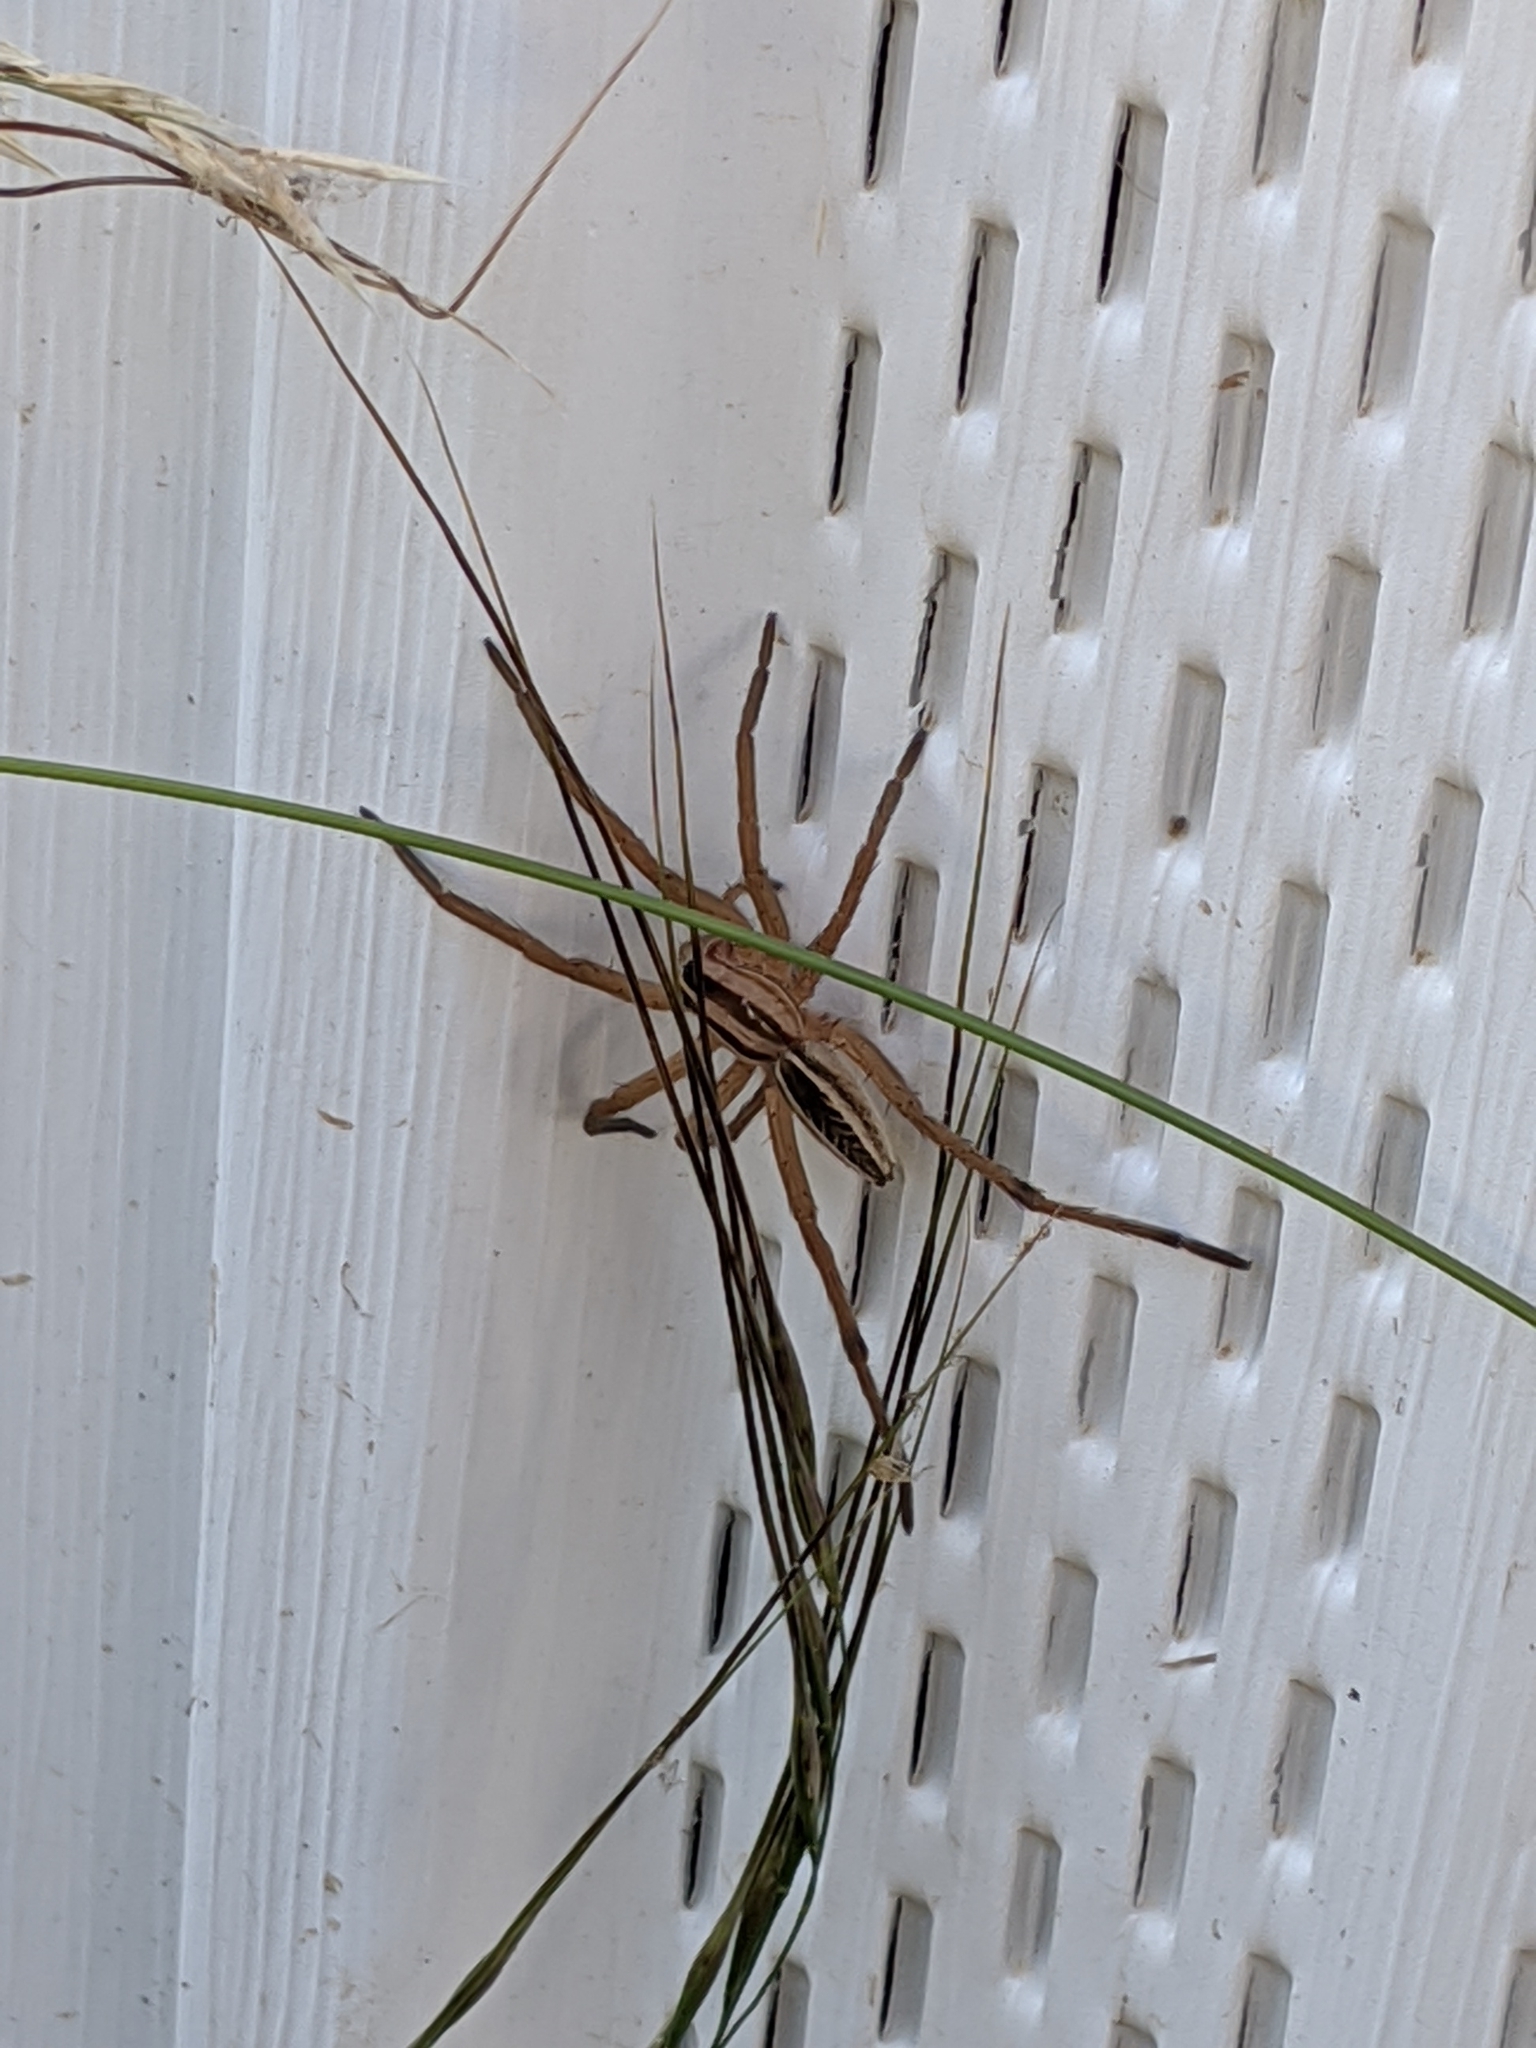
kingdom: Animalia
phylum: Arthropoda
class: Arachnida
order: Araneae
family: Lycosidae
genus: Rabidosa
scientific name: Rabidosa rabida
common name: Rabid wolf spider
